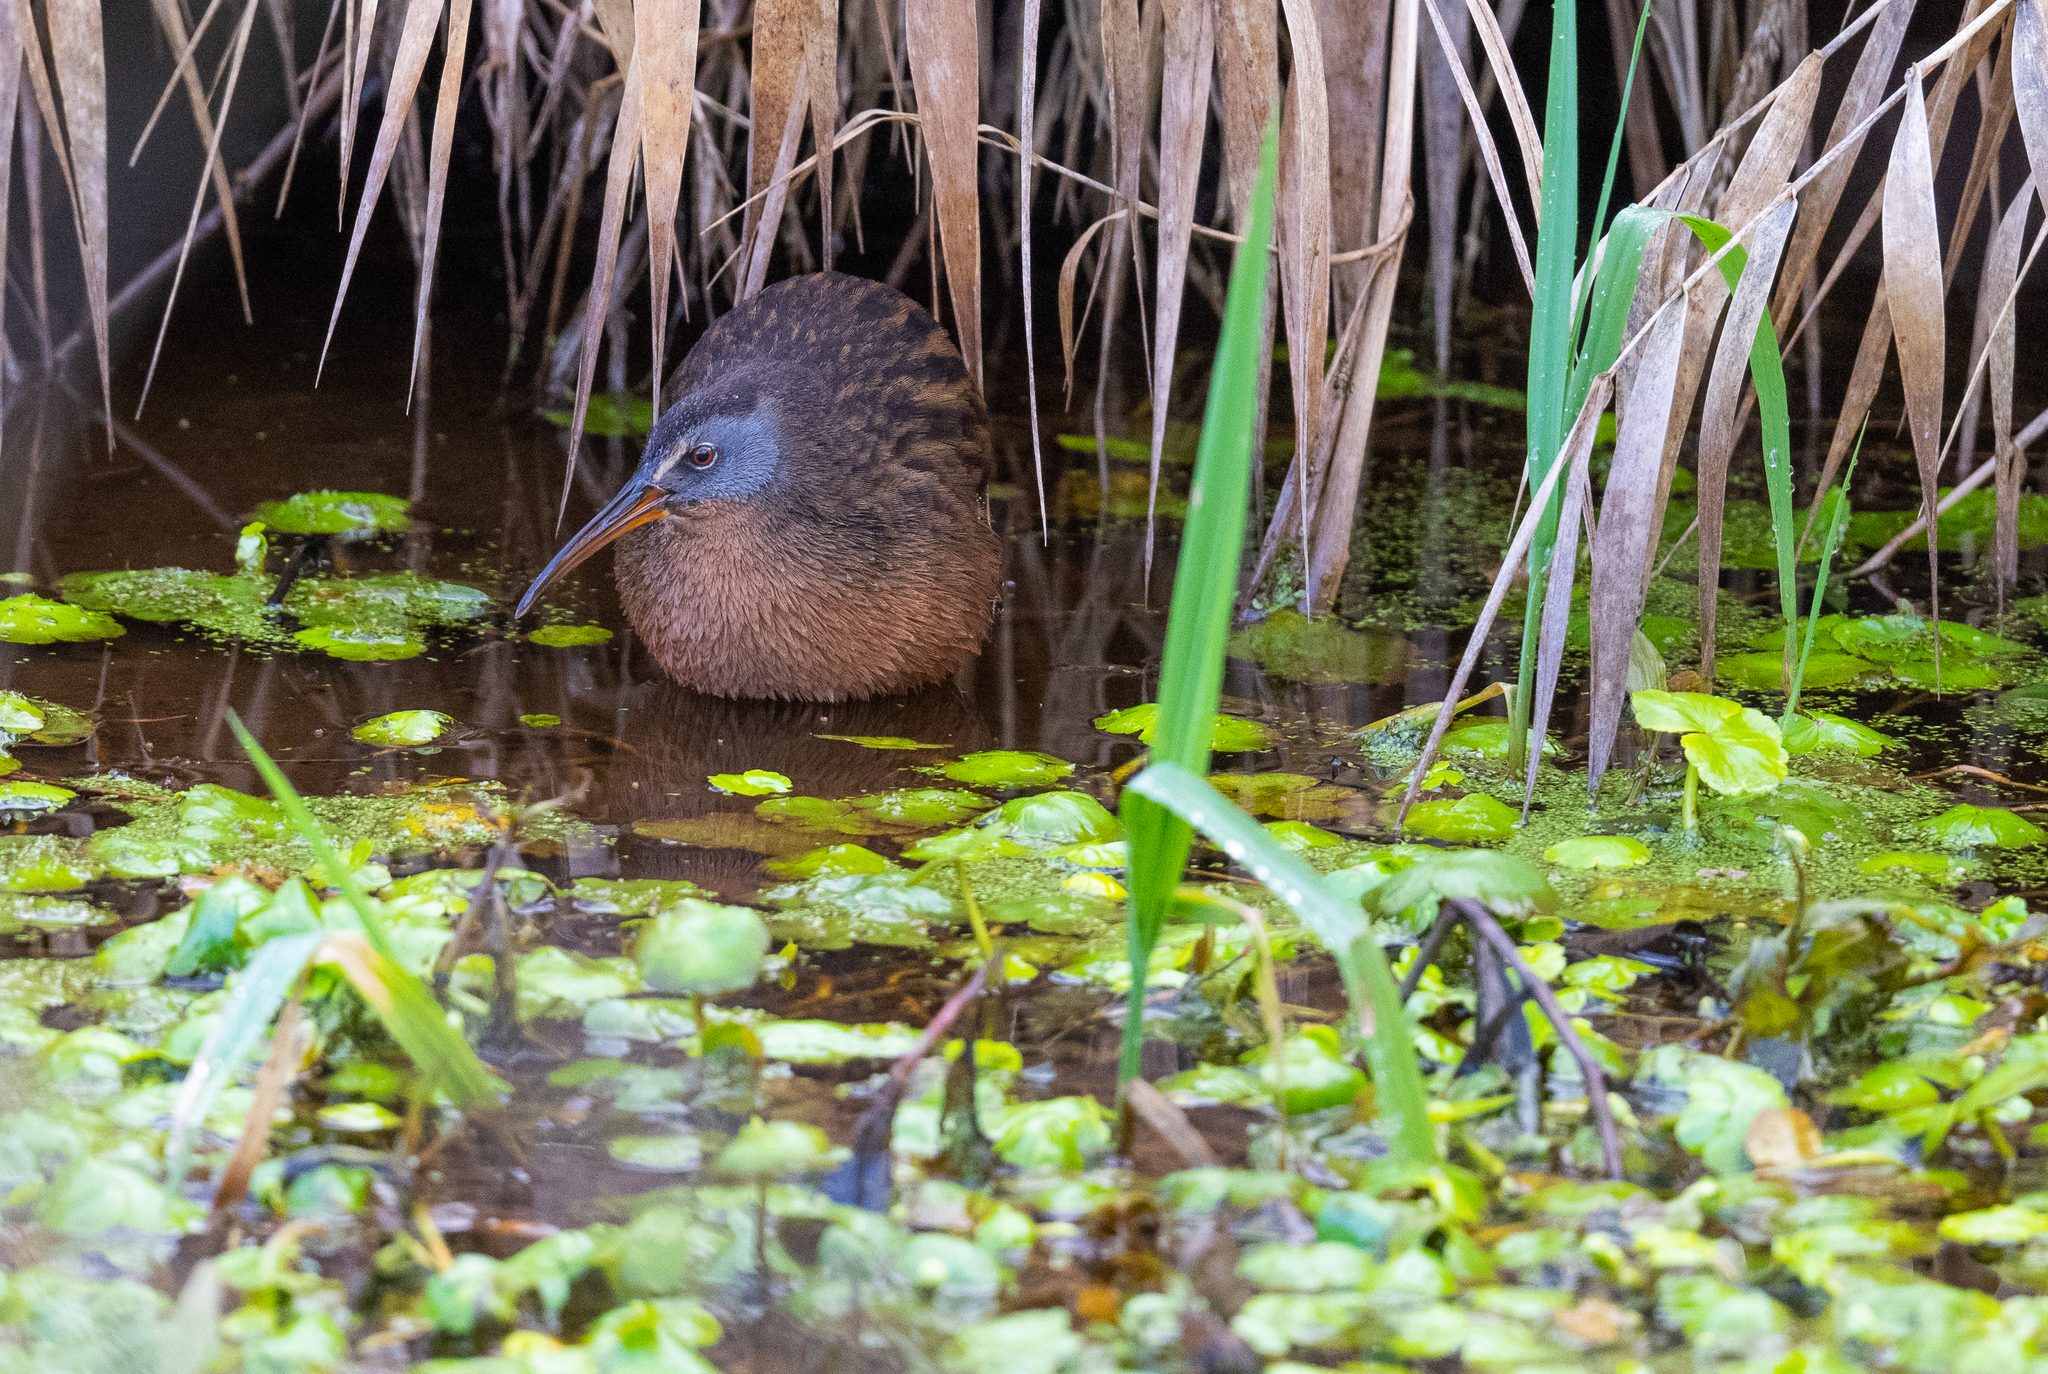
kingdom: Animalia
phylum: Chordata
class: Aves
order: Gruiformes
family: Rallidae
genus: Rallus
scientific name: Rallus limicola
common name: Virginia rail
